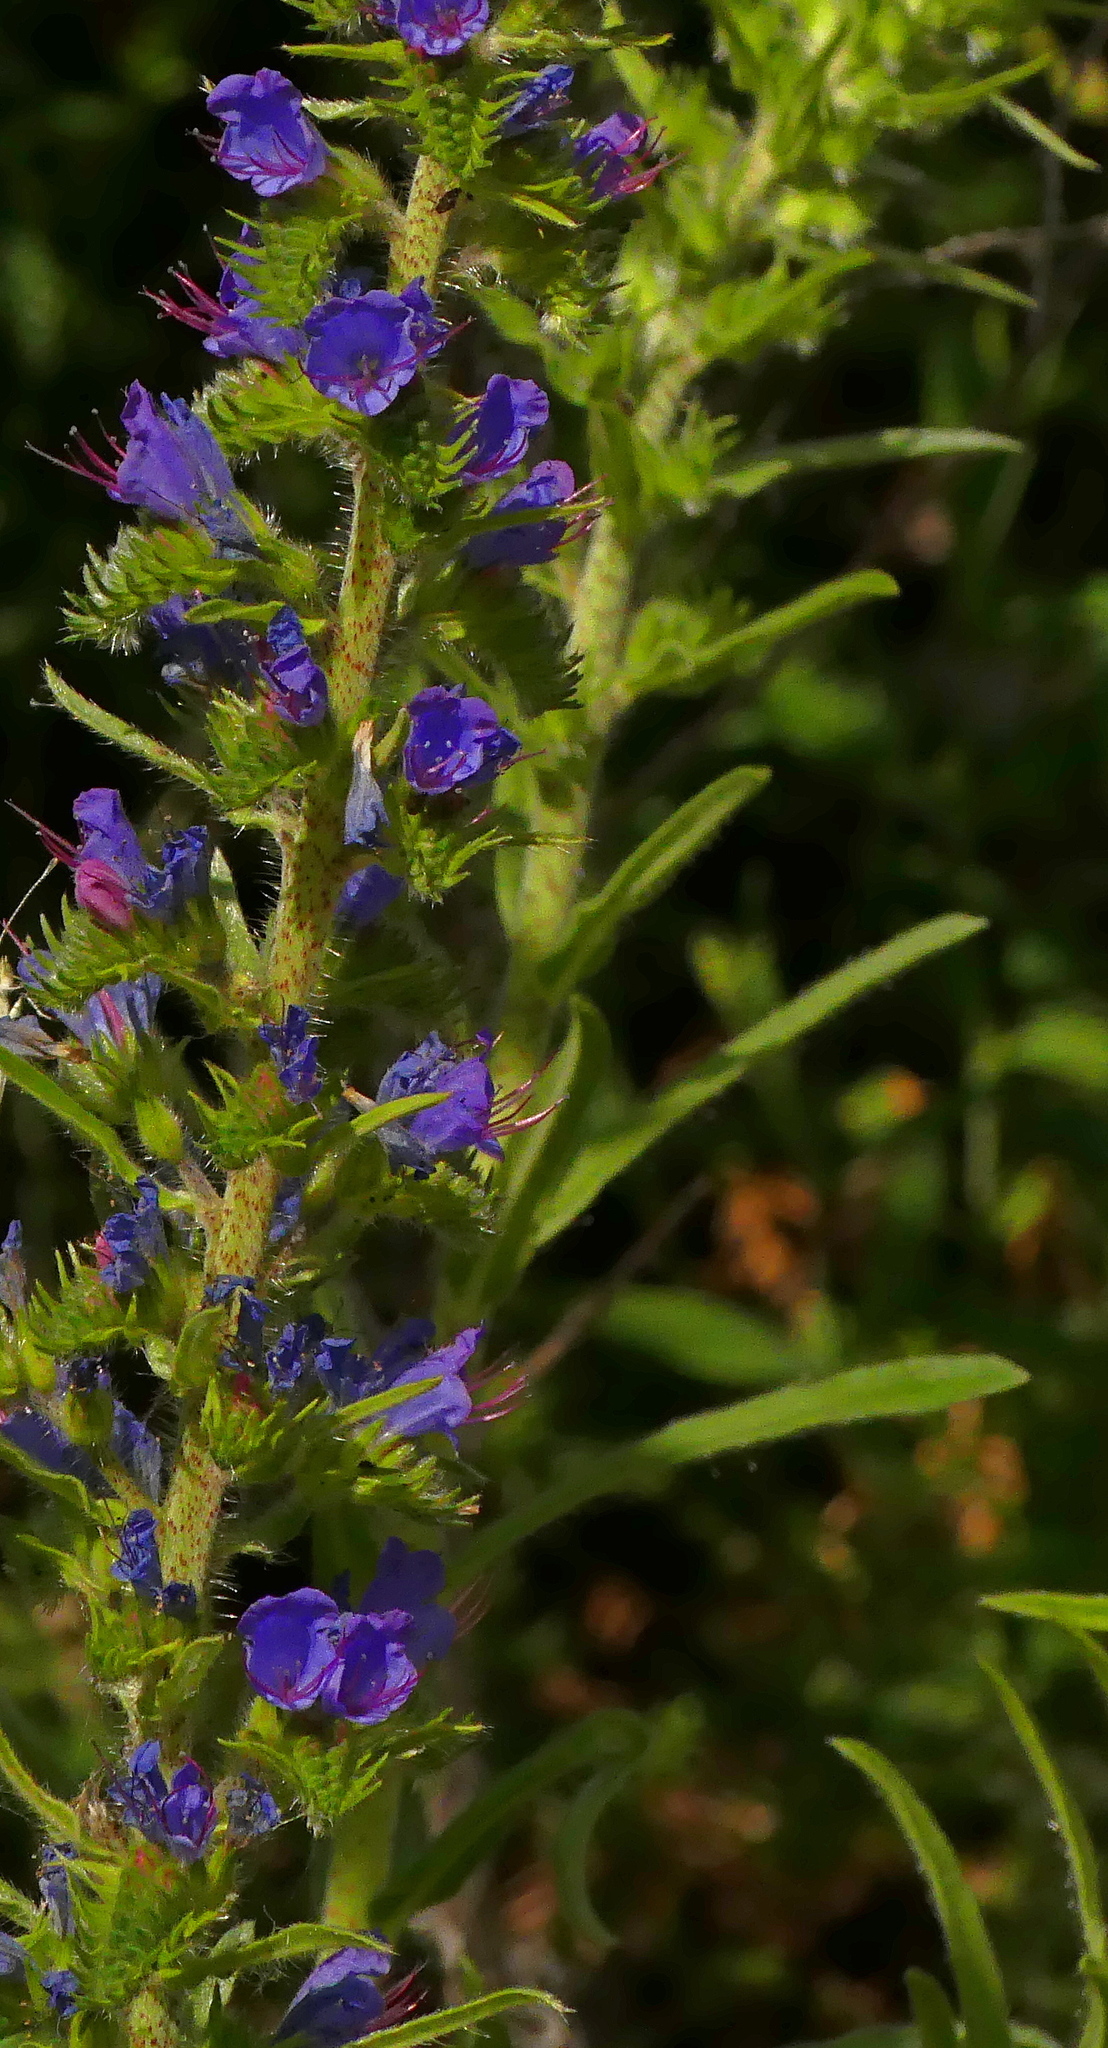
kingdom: Plantae
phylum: Tracheophyta
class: Magnoliopsida
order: Boraginales
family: Boraginaceae
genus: Echium
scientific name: Echium vulgare
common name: Common viper's bugloss
